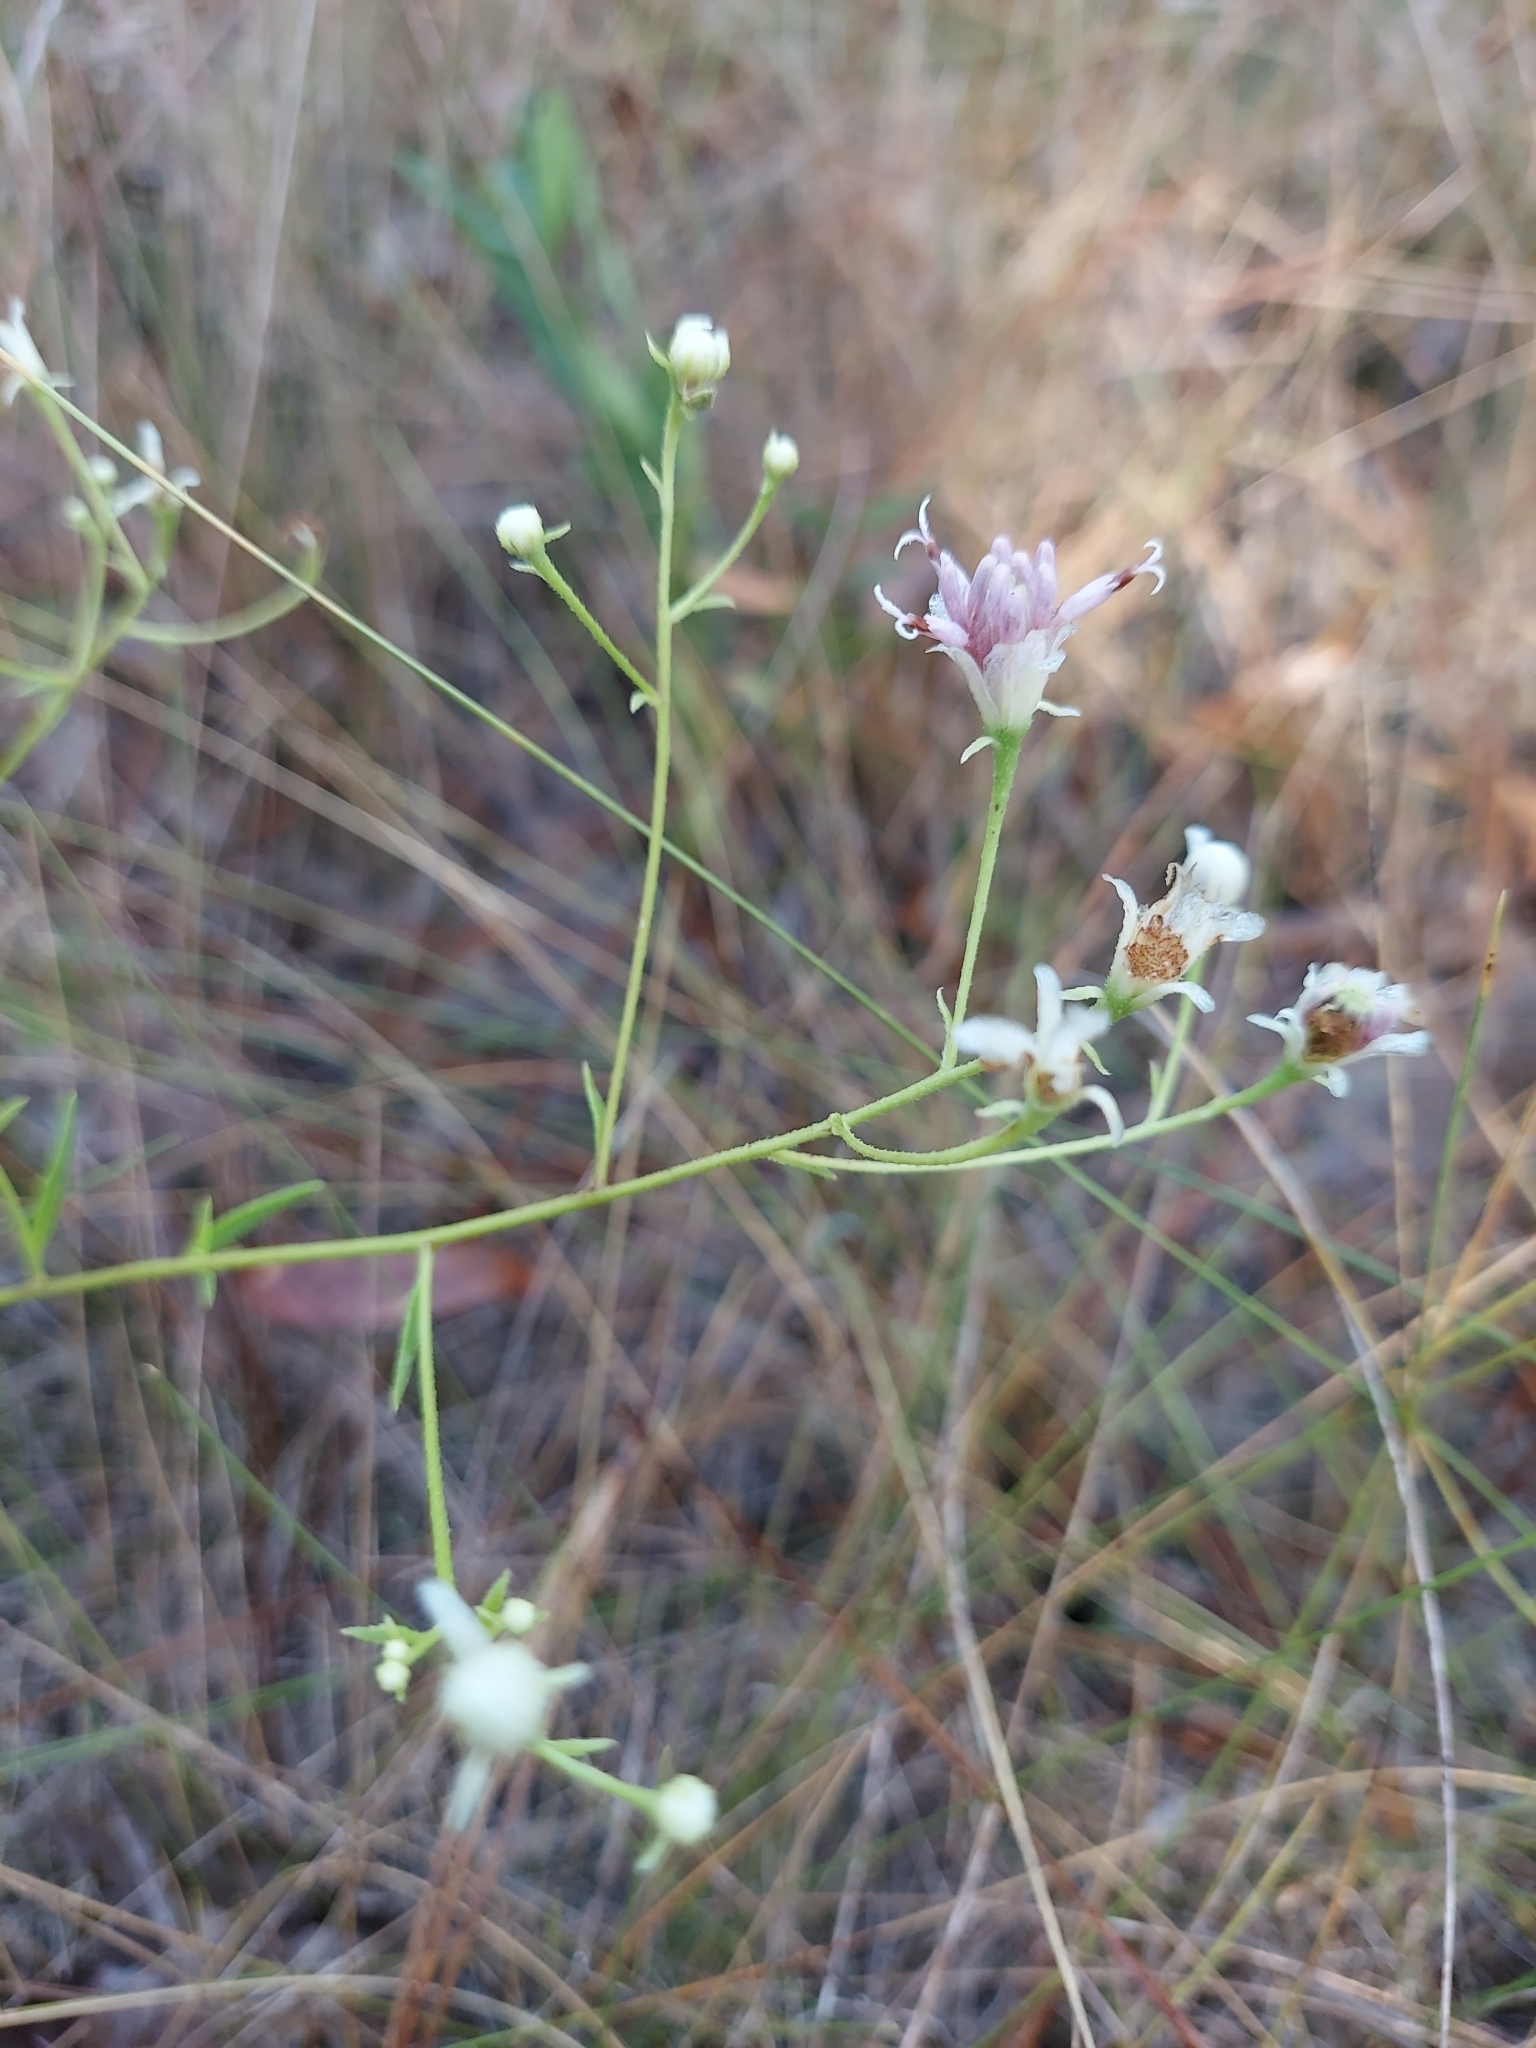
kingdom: Plantae
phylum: Tracheophyta
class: Magnoliopsida
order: Asterales
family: Asteraceae
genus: Palafoxia
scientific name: Palafoxia integrifolia
